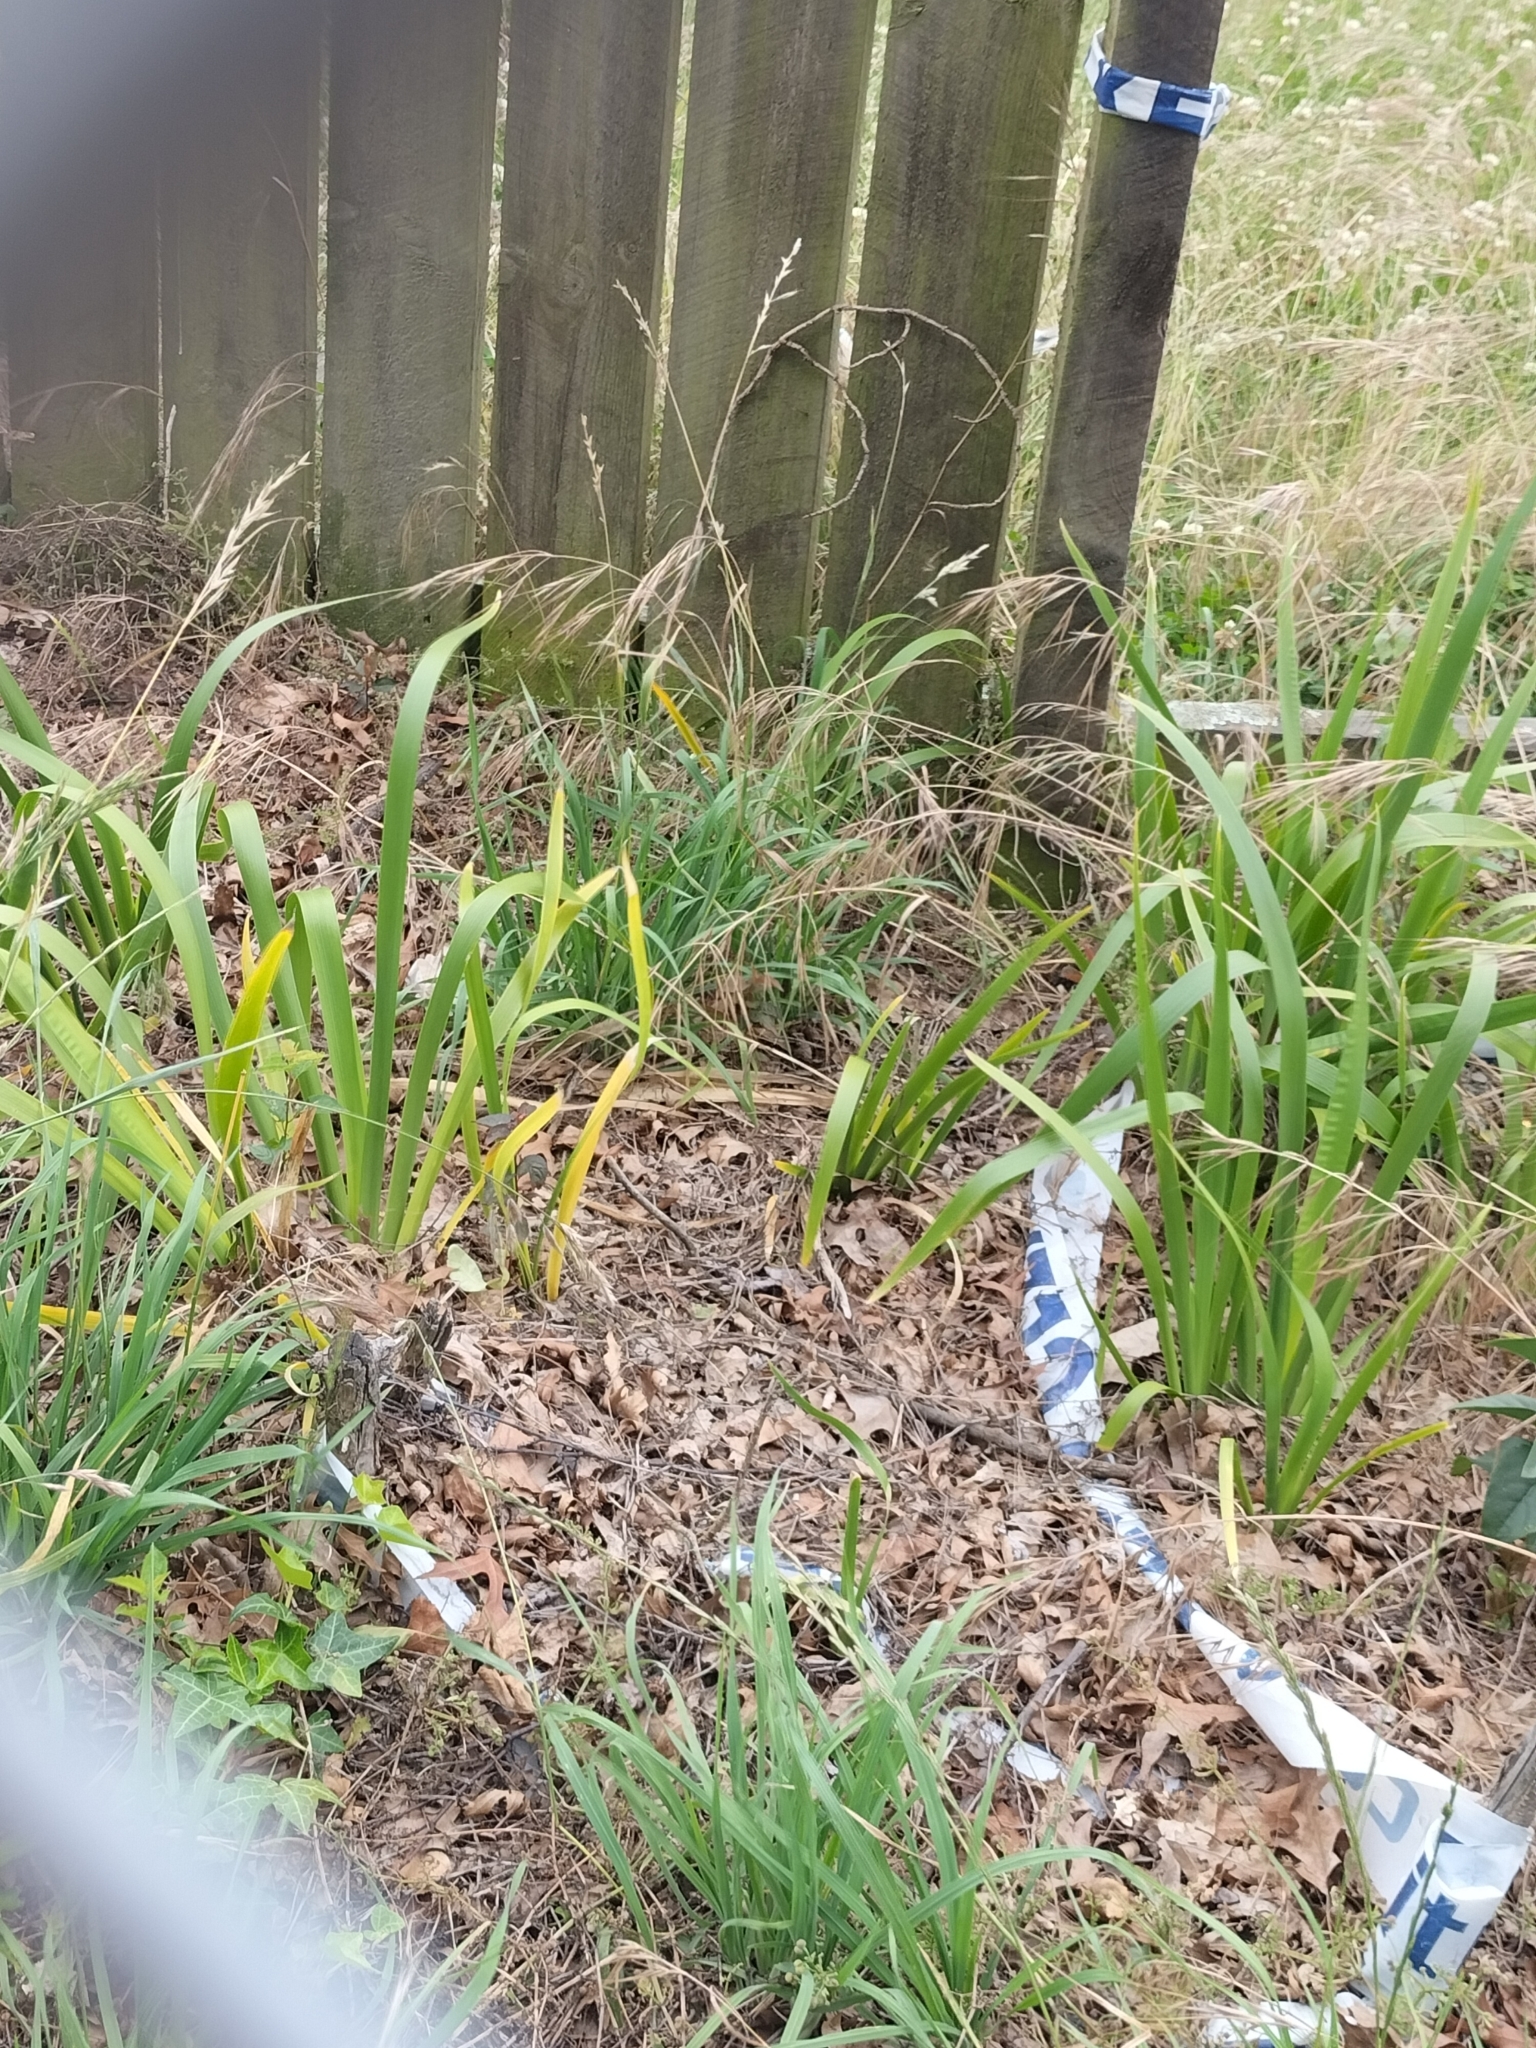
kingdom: Plantae
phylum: Tracheophyta
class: Liliopsida
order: Asparagales
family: Iridaceae
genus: Iris
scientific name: Iris foetidissima
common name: Stinking iris
